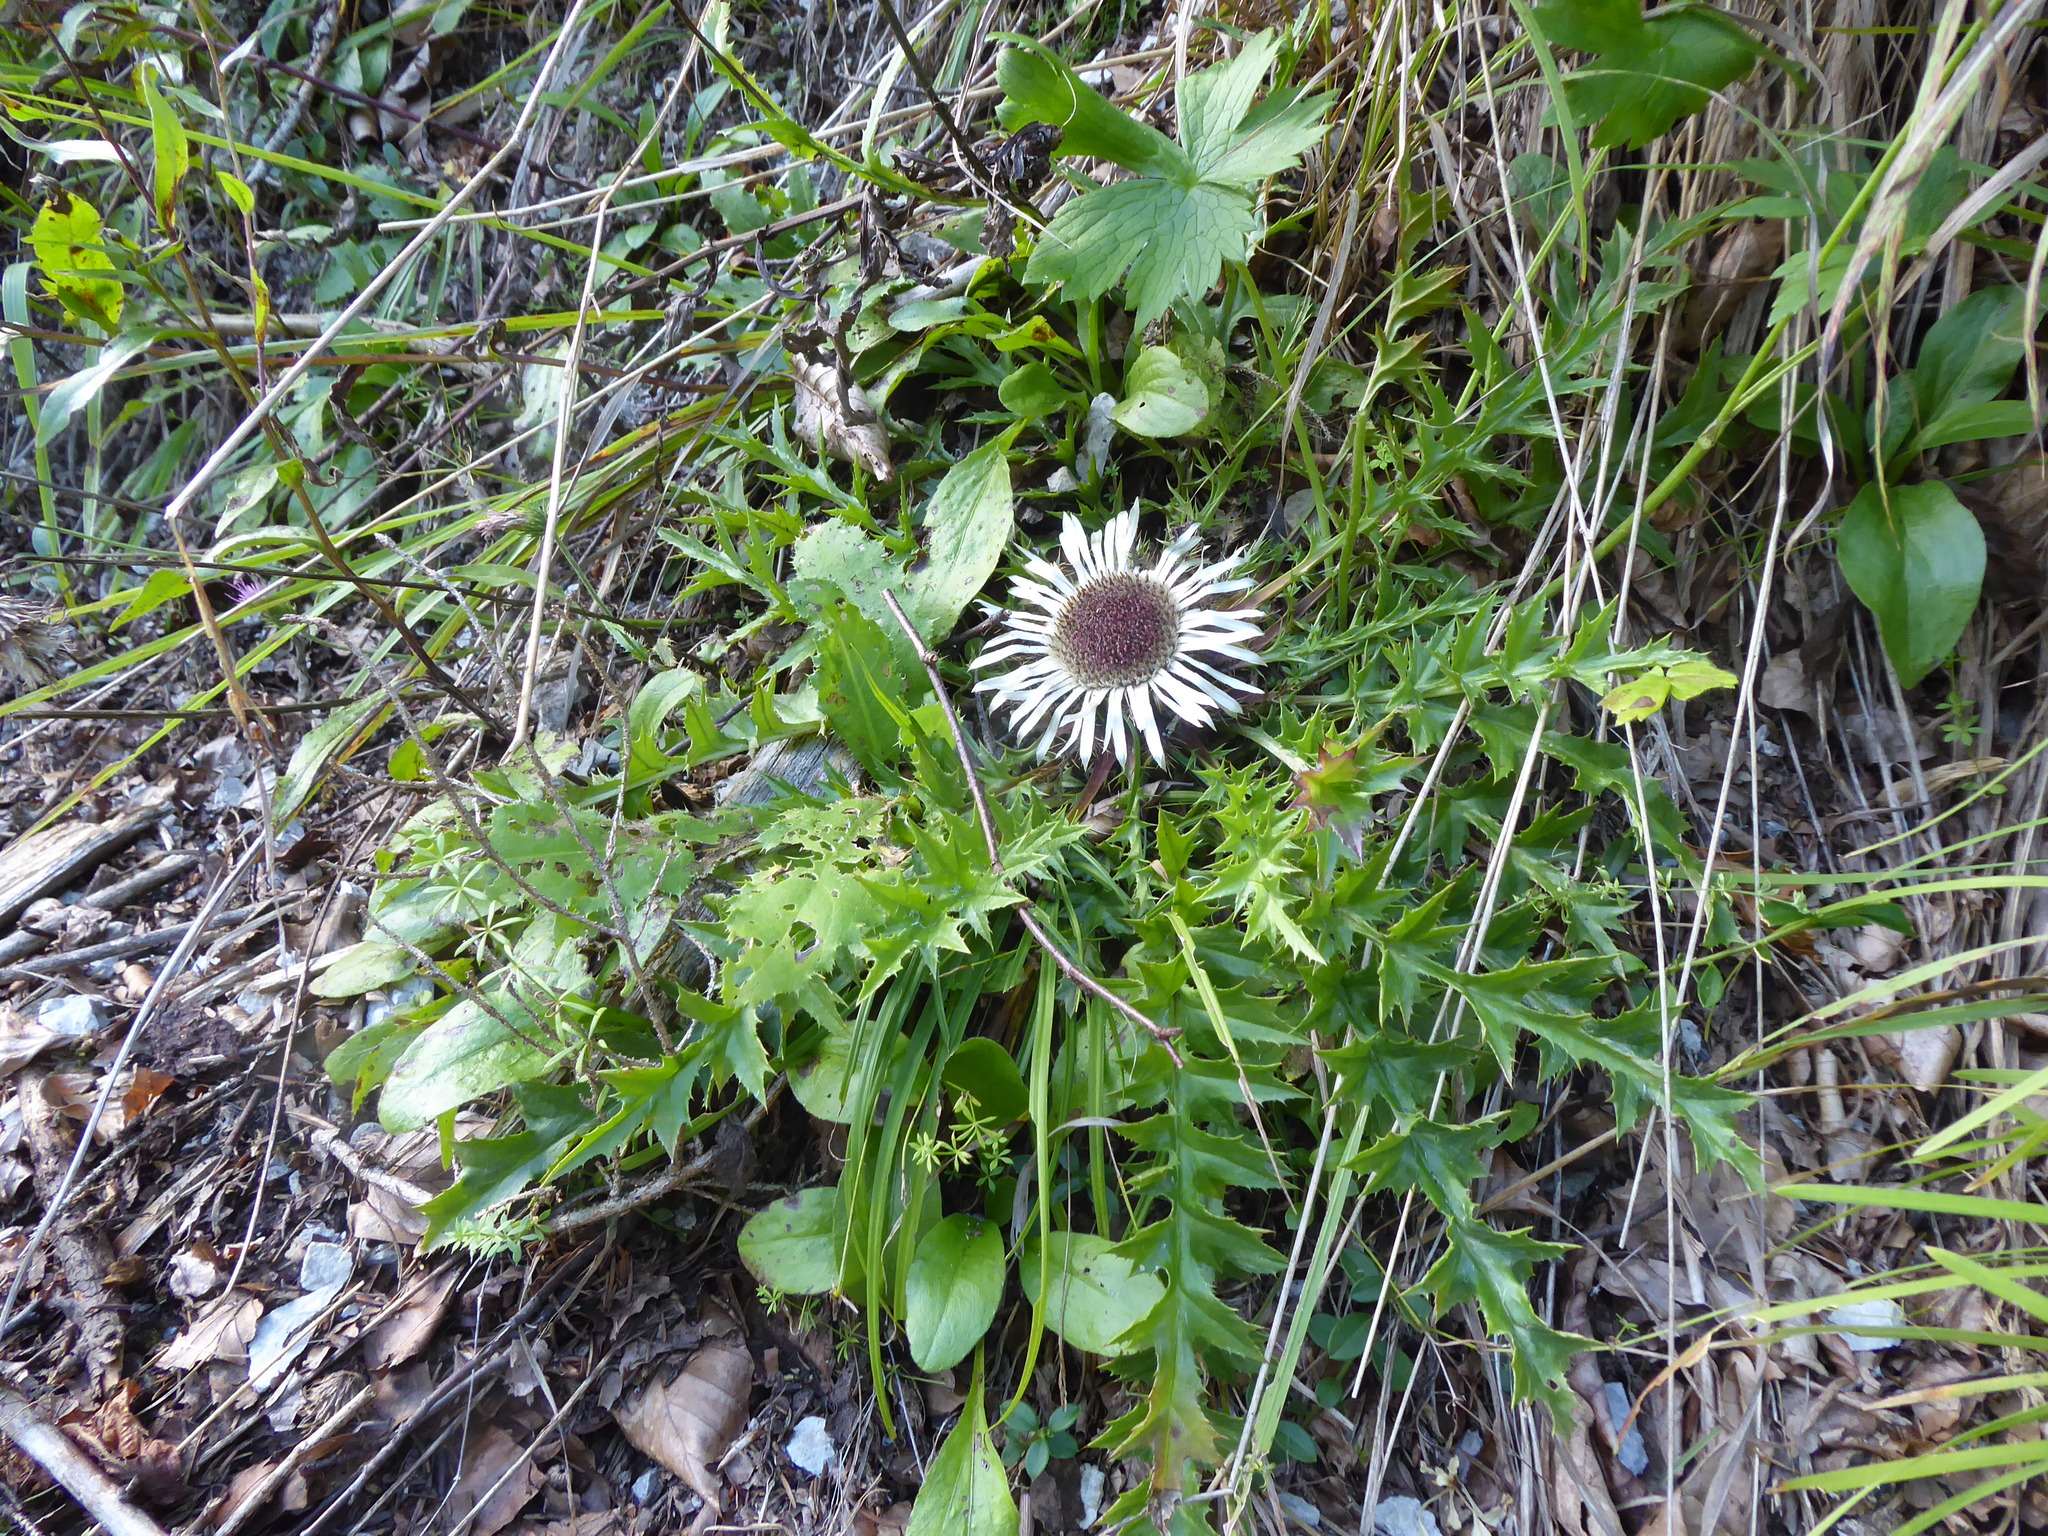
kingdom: Plantae
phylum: Tracheophyta
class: Magnoliopsida
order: Asterales
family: Asteraceae
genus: Carlina
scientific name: Carlina acaulis
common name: Stemless carline thistle
